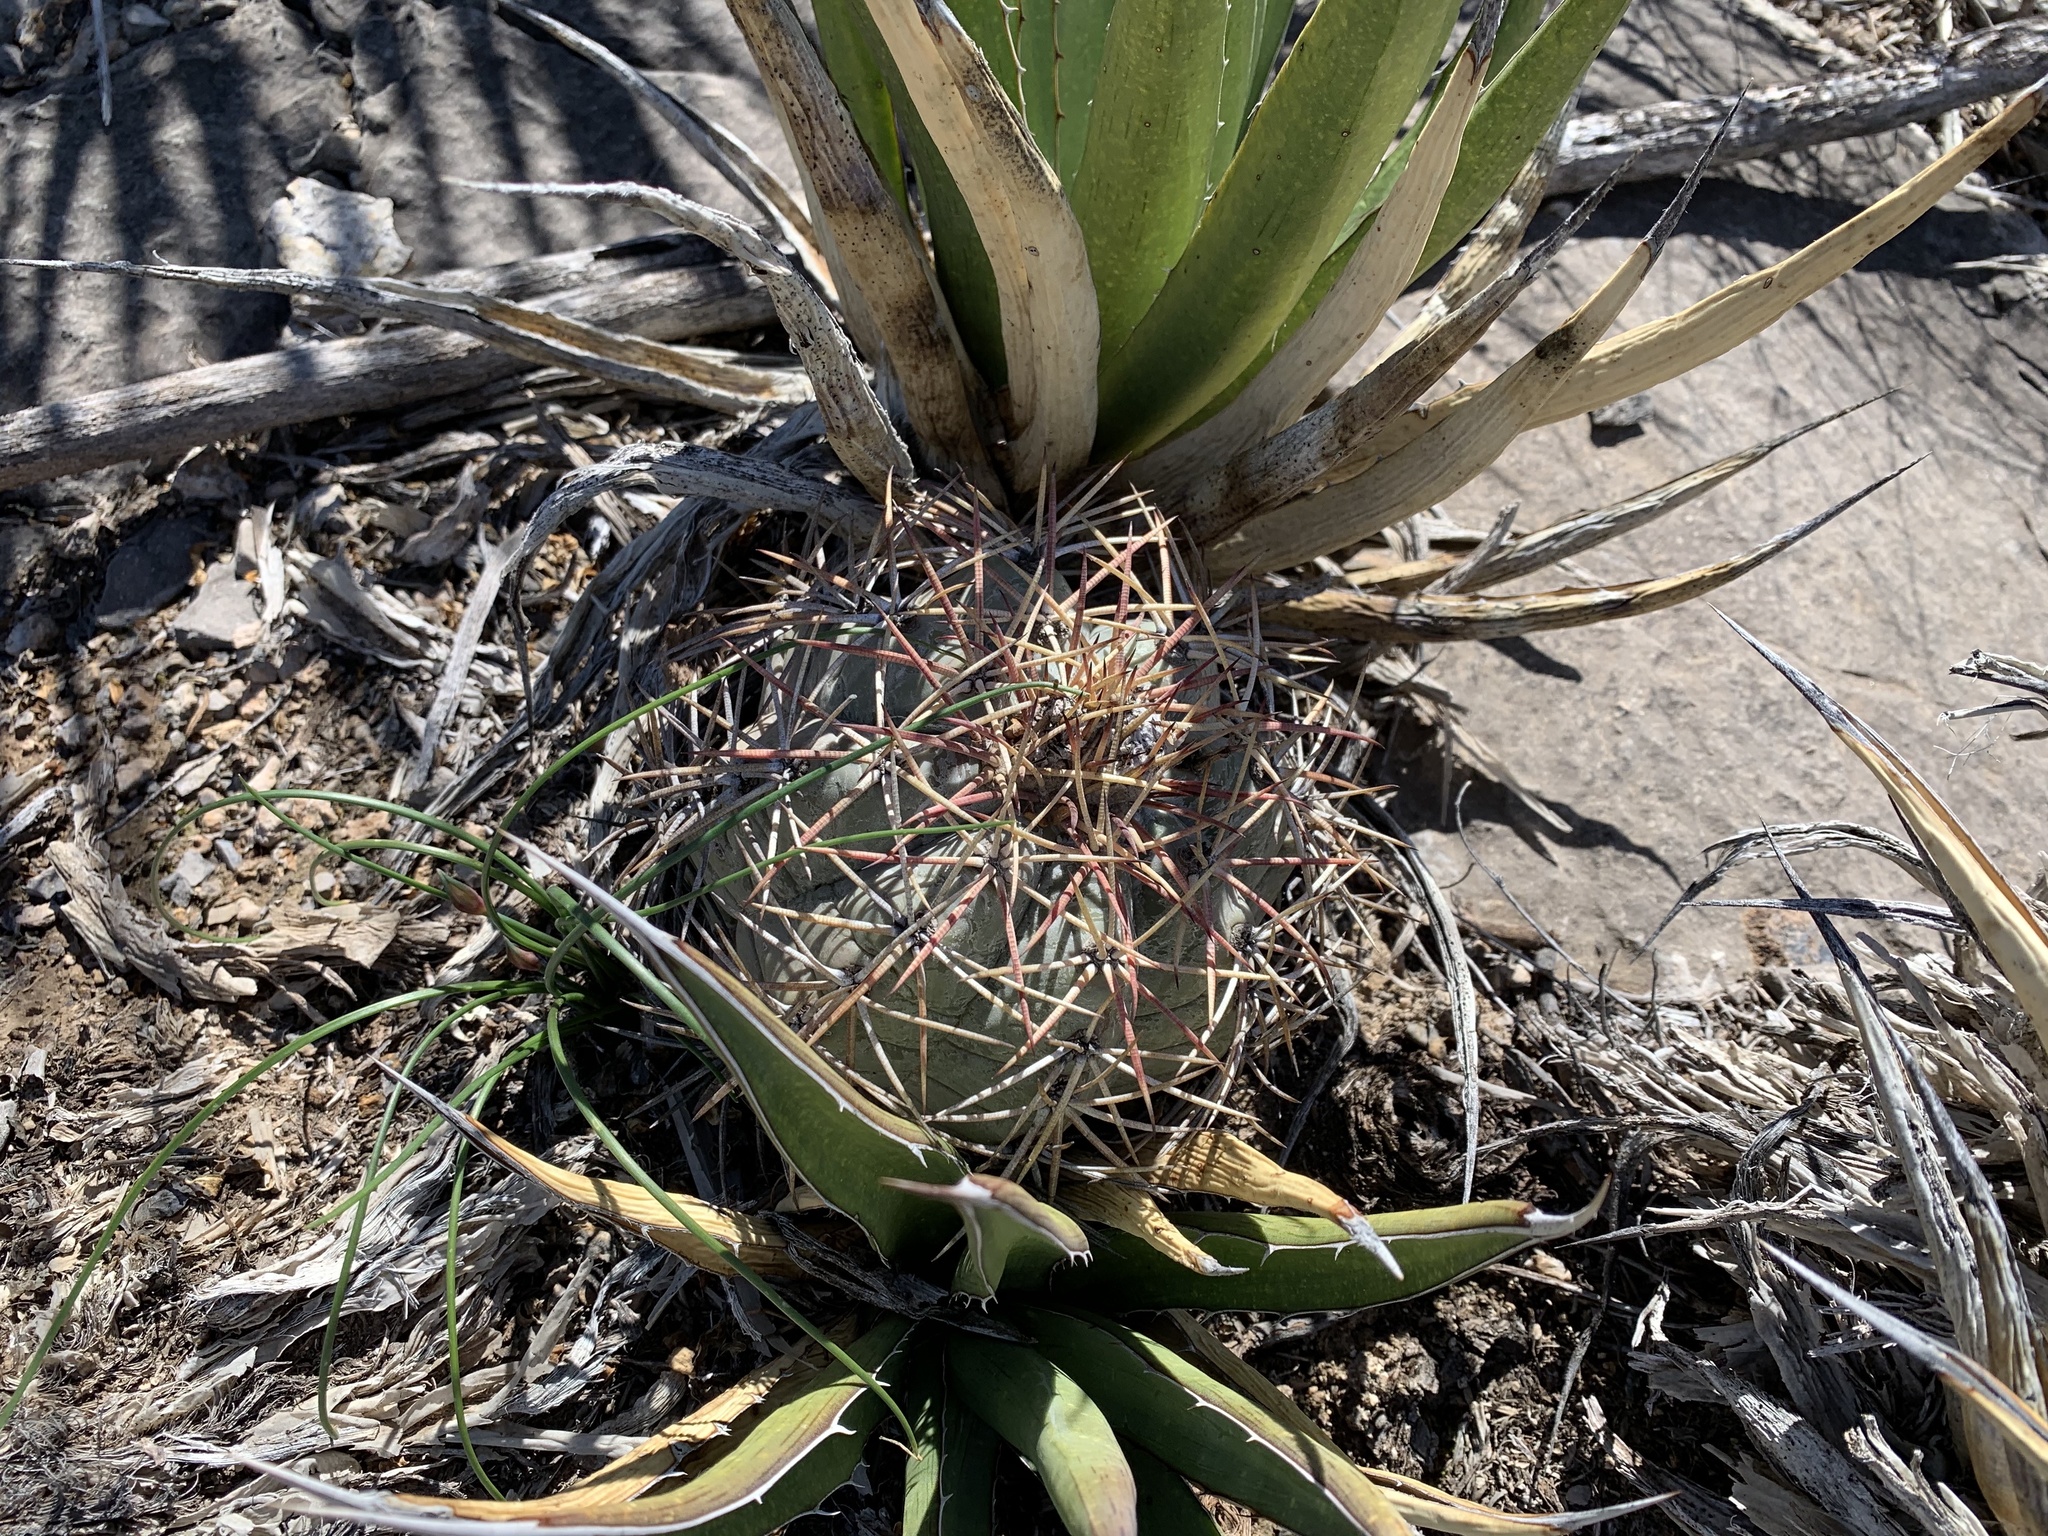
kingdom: Plantae
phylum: Tracheophyta
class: Magnoliopsida
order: Caryophyllales
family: Cactaceae
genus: Echinocactus
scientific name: Echinocactus horizonthalonius
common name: Devilshead
